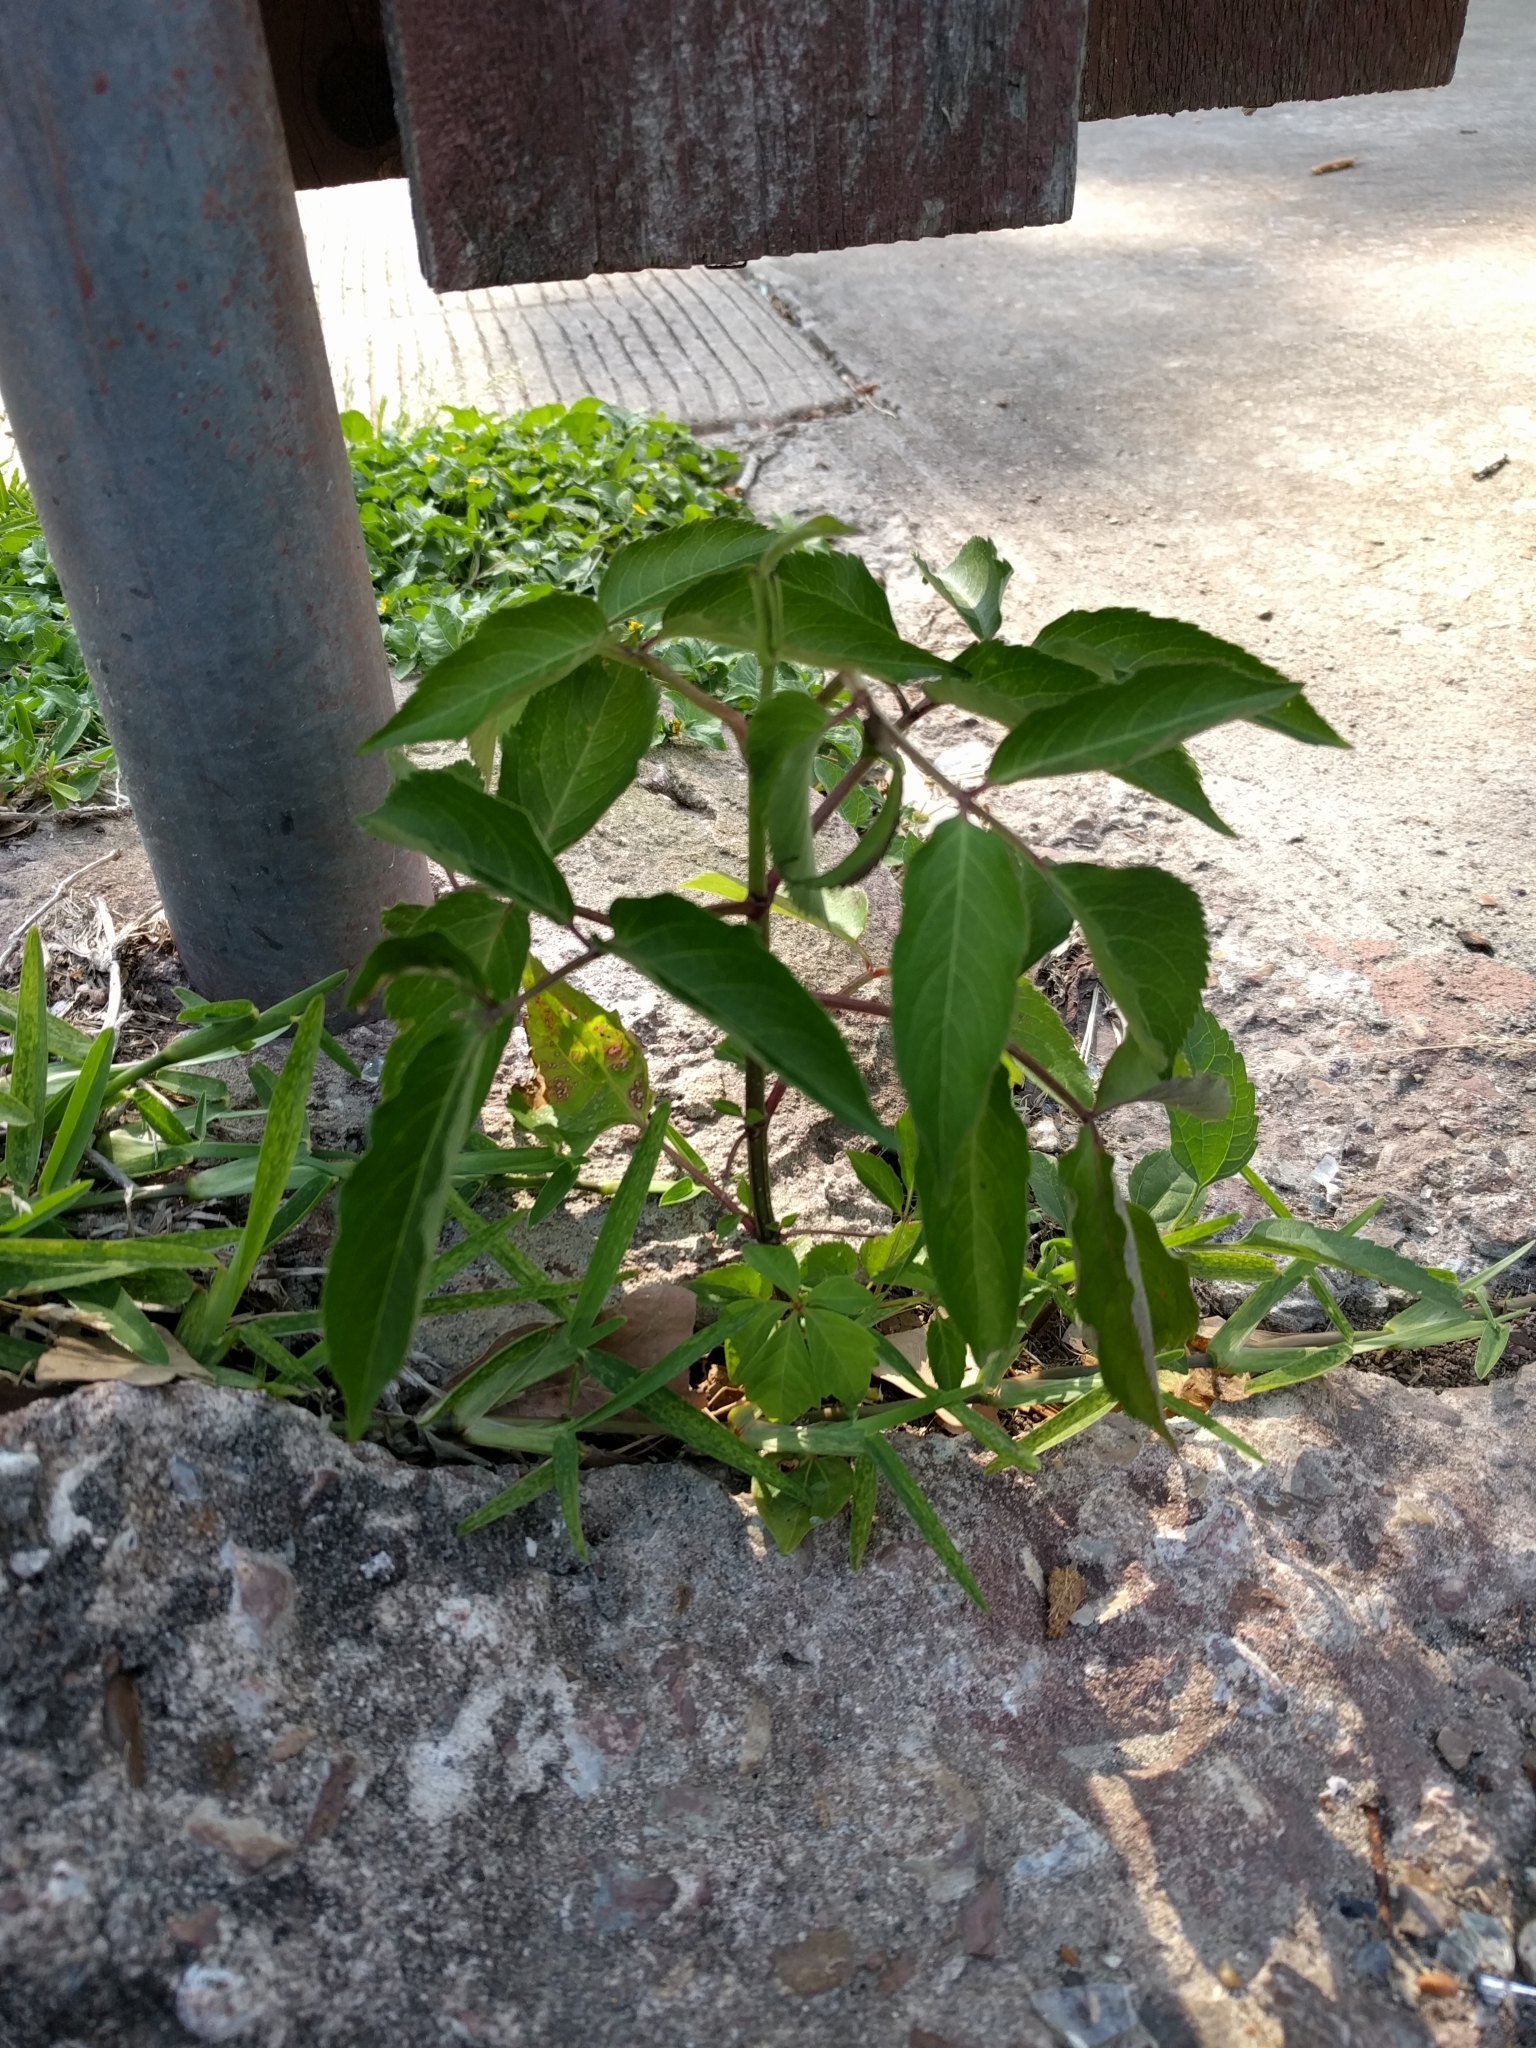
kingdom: Plantae
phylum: Tracheophyta
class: Magnoliopsida
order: Dipsacales
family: Viburnaceae
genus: Sambucus
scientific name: Sambucus canadensis
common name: American elder
